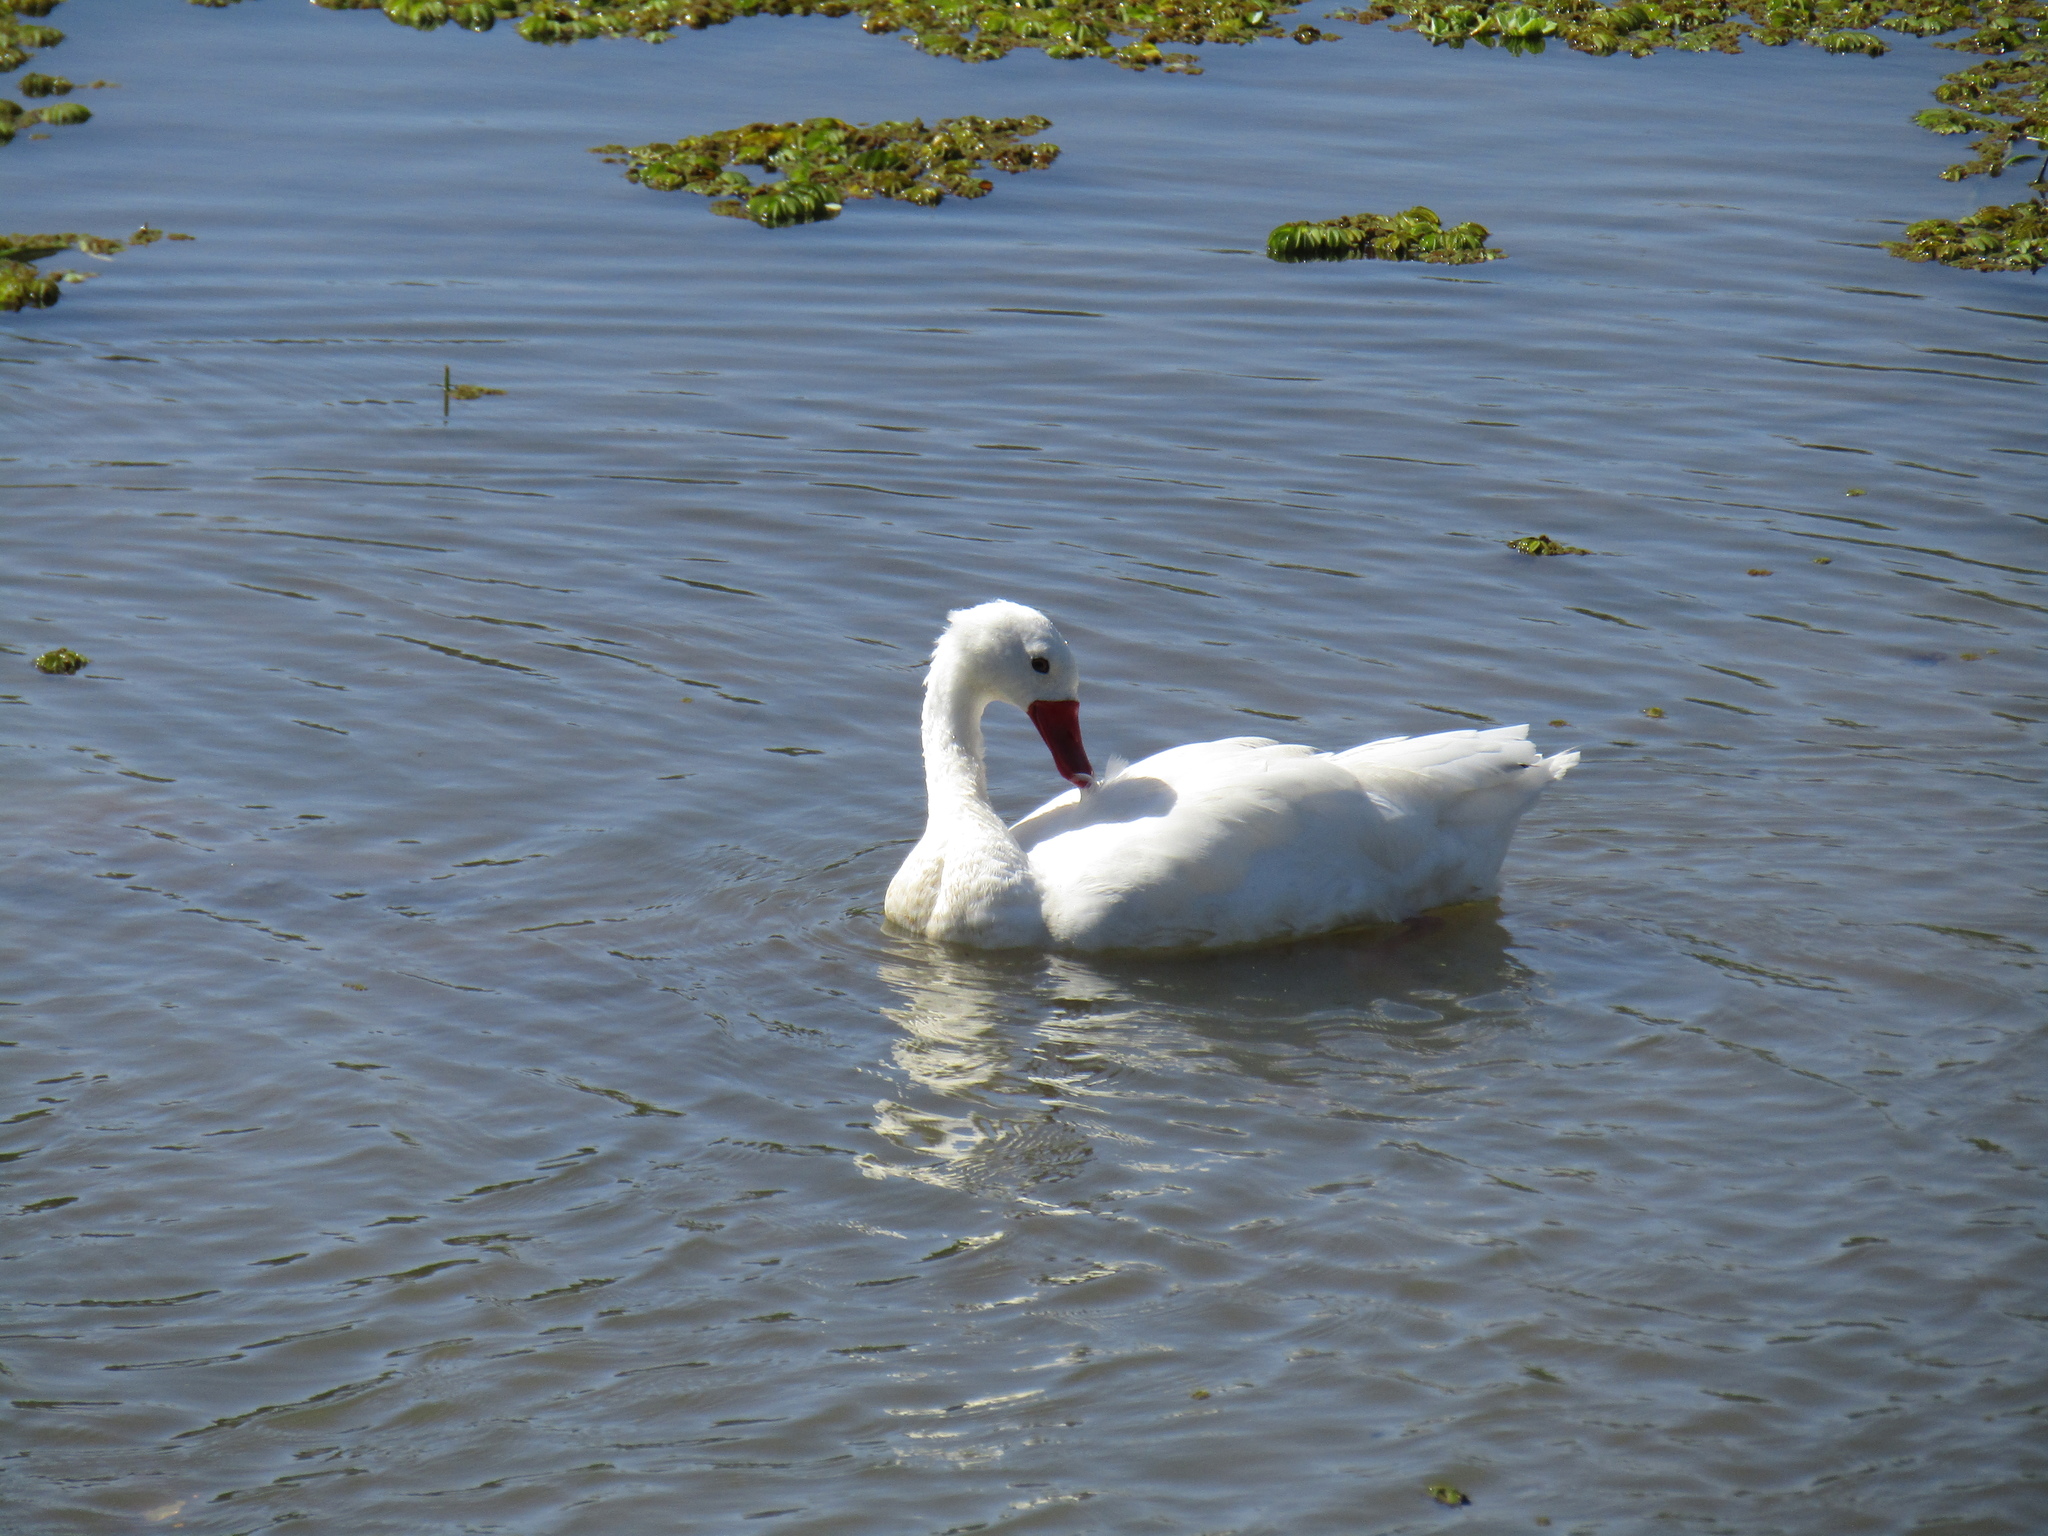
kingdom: Animalia
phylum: Chordata
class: Aves
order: Anseriformes
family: Anatidae
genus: Coscoroba
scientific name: Coscoroba coscoroba
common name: Coscoroba swan
